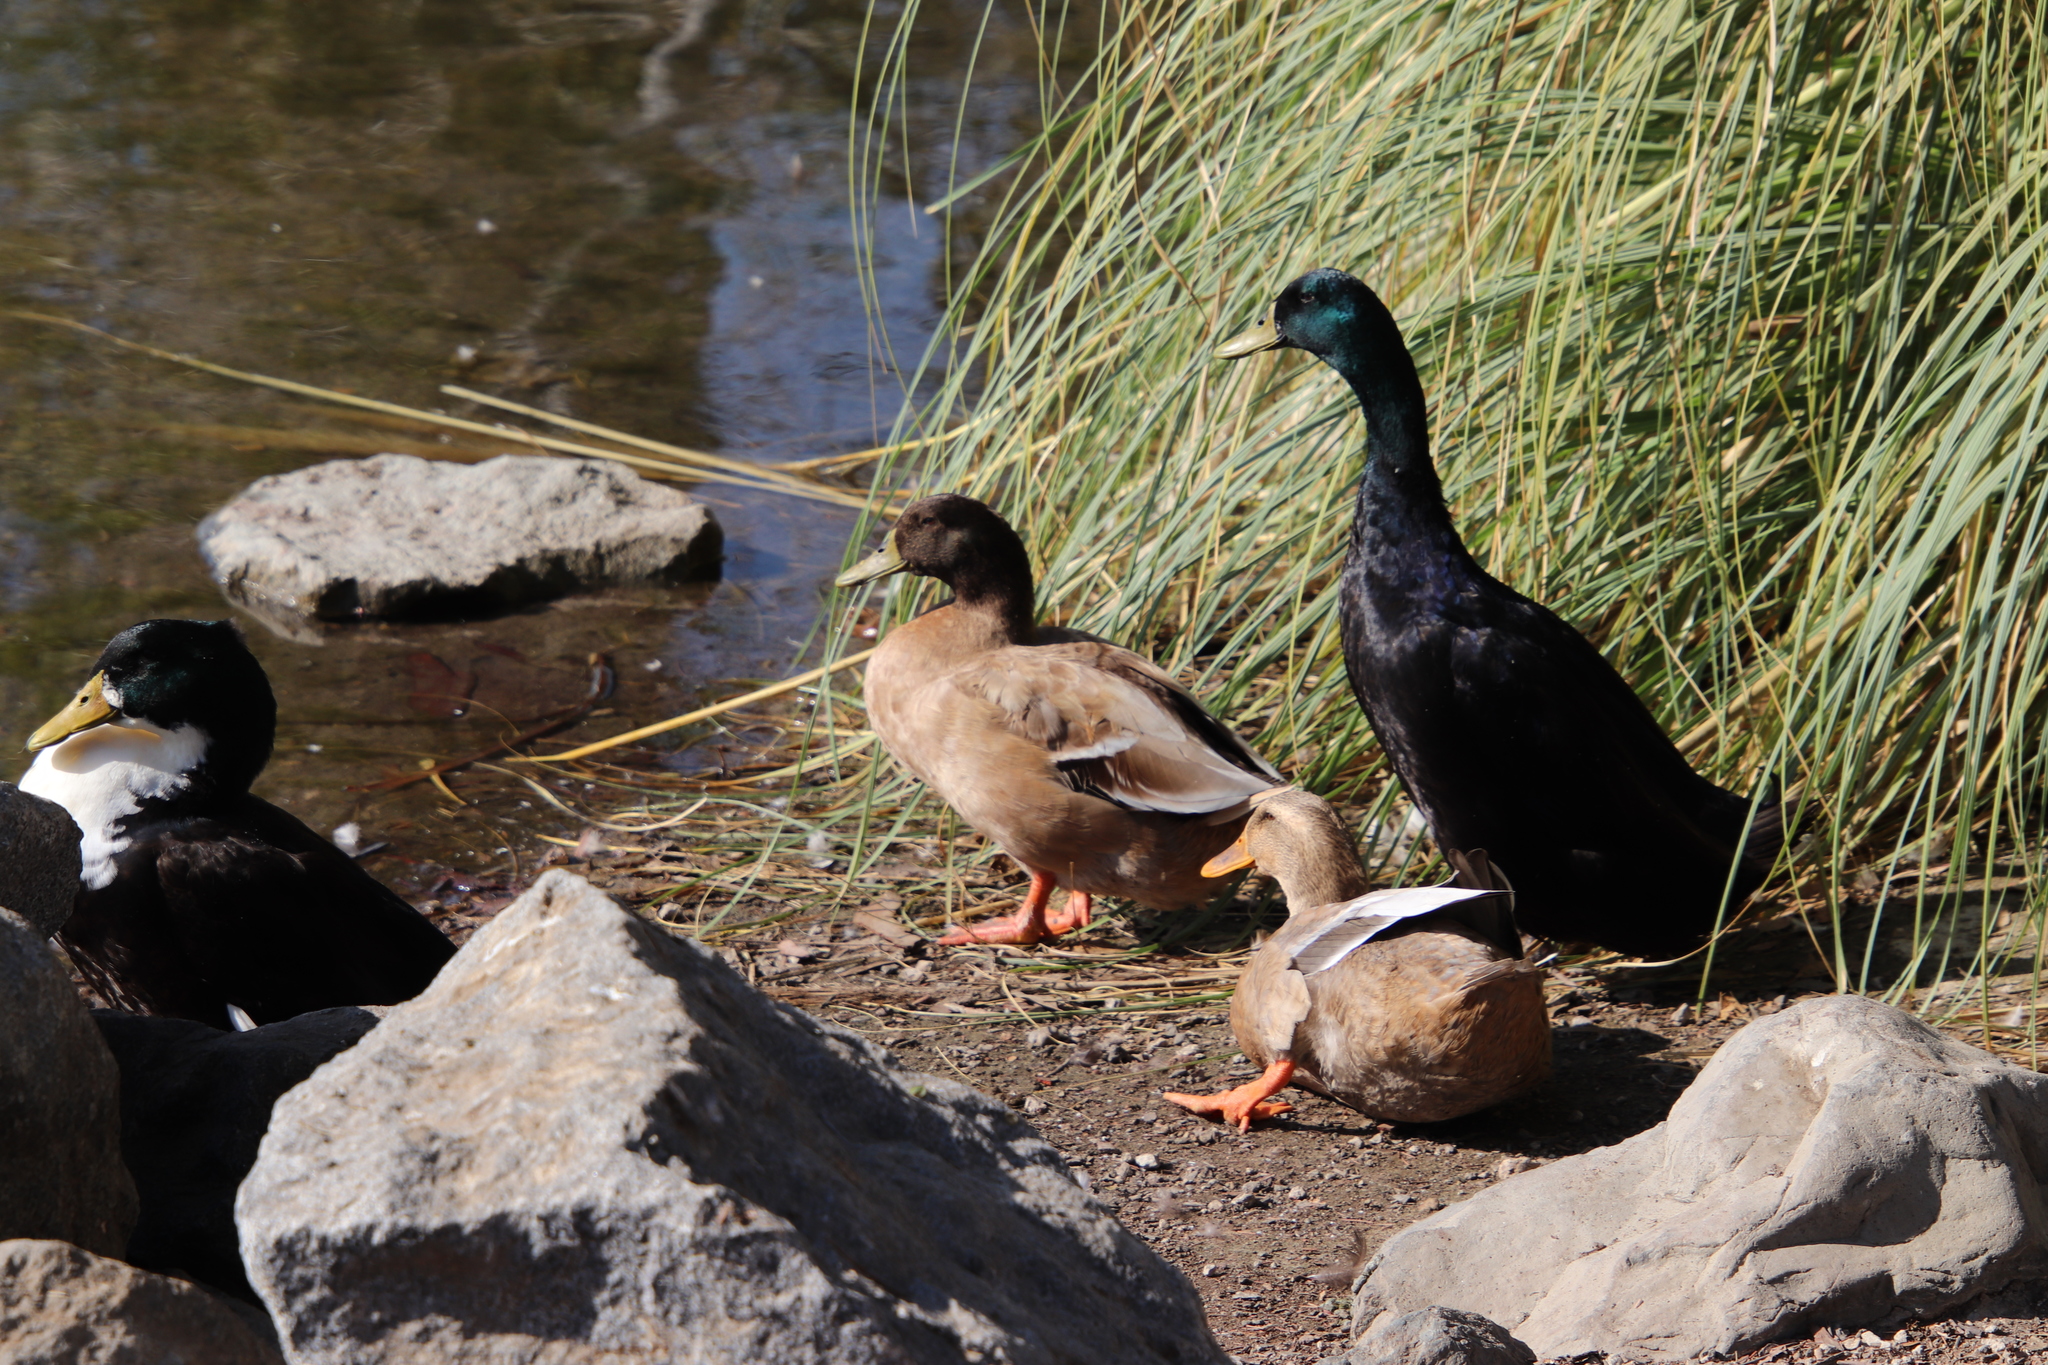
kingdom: Animalia
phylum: Chordata
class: Aves
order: Anseriformes
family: Anatidae
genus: Anas
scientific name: Anas platyrhynchos
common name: Mallard
